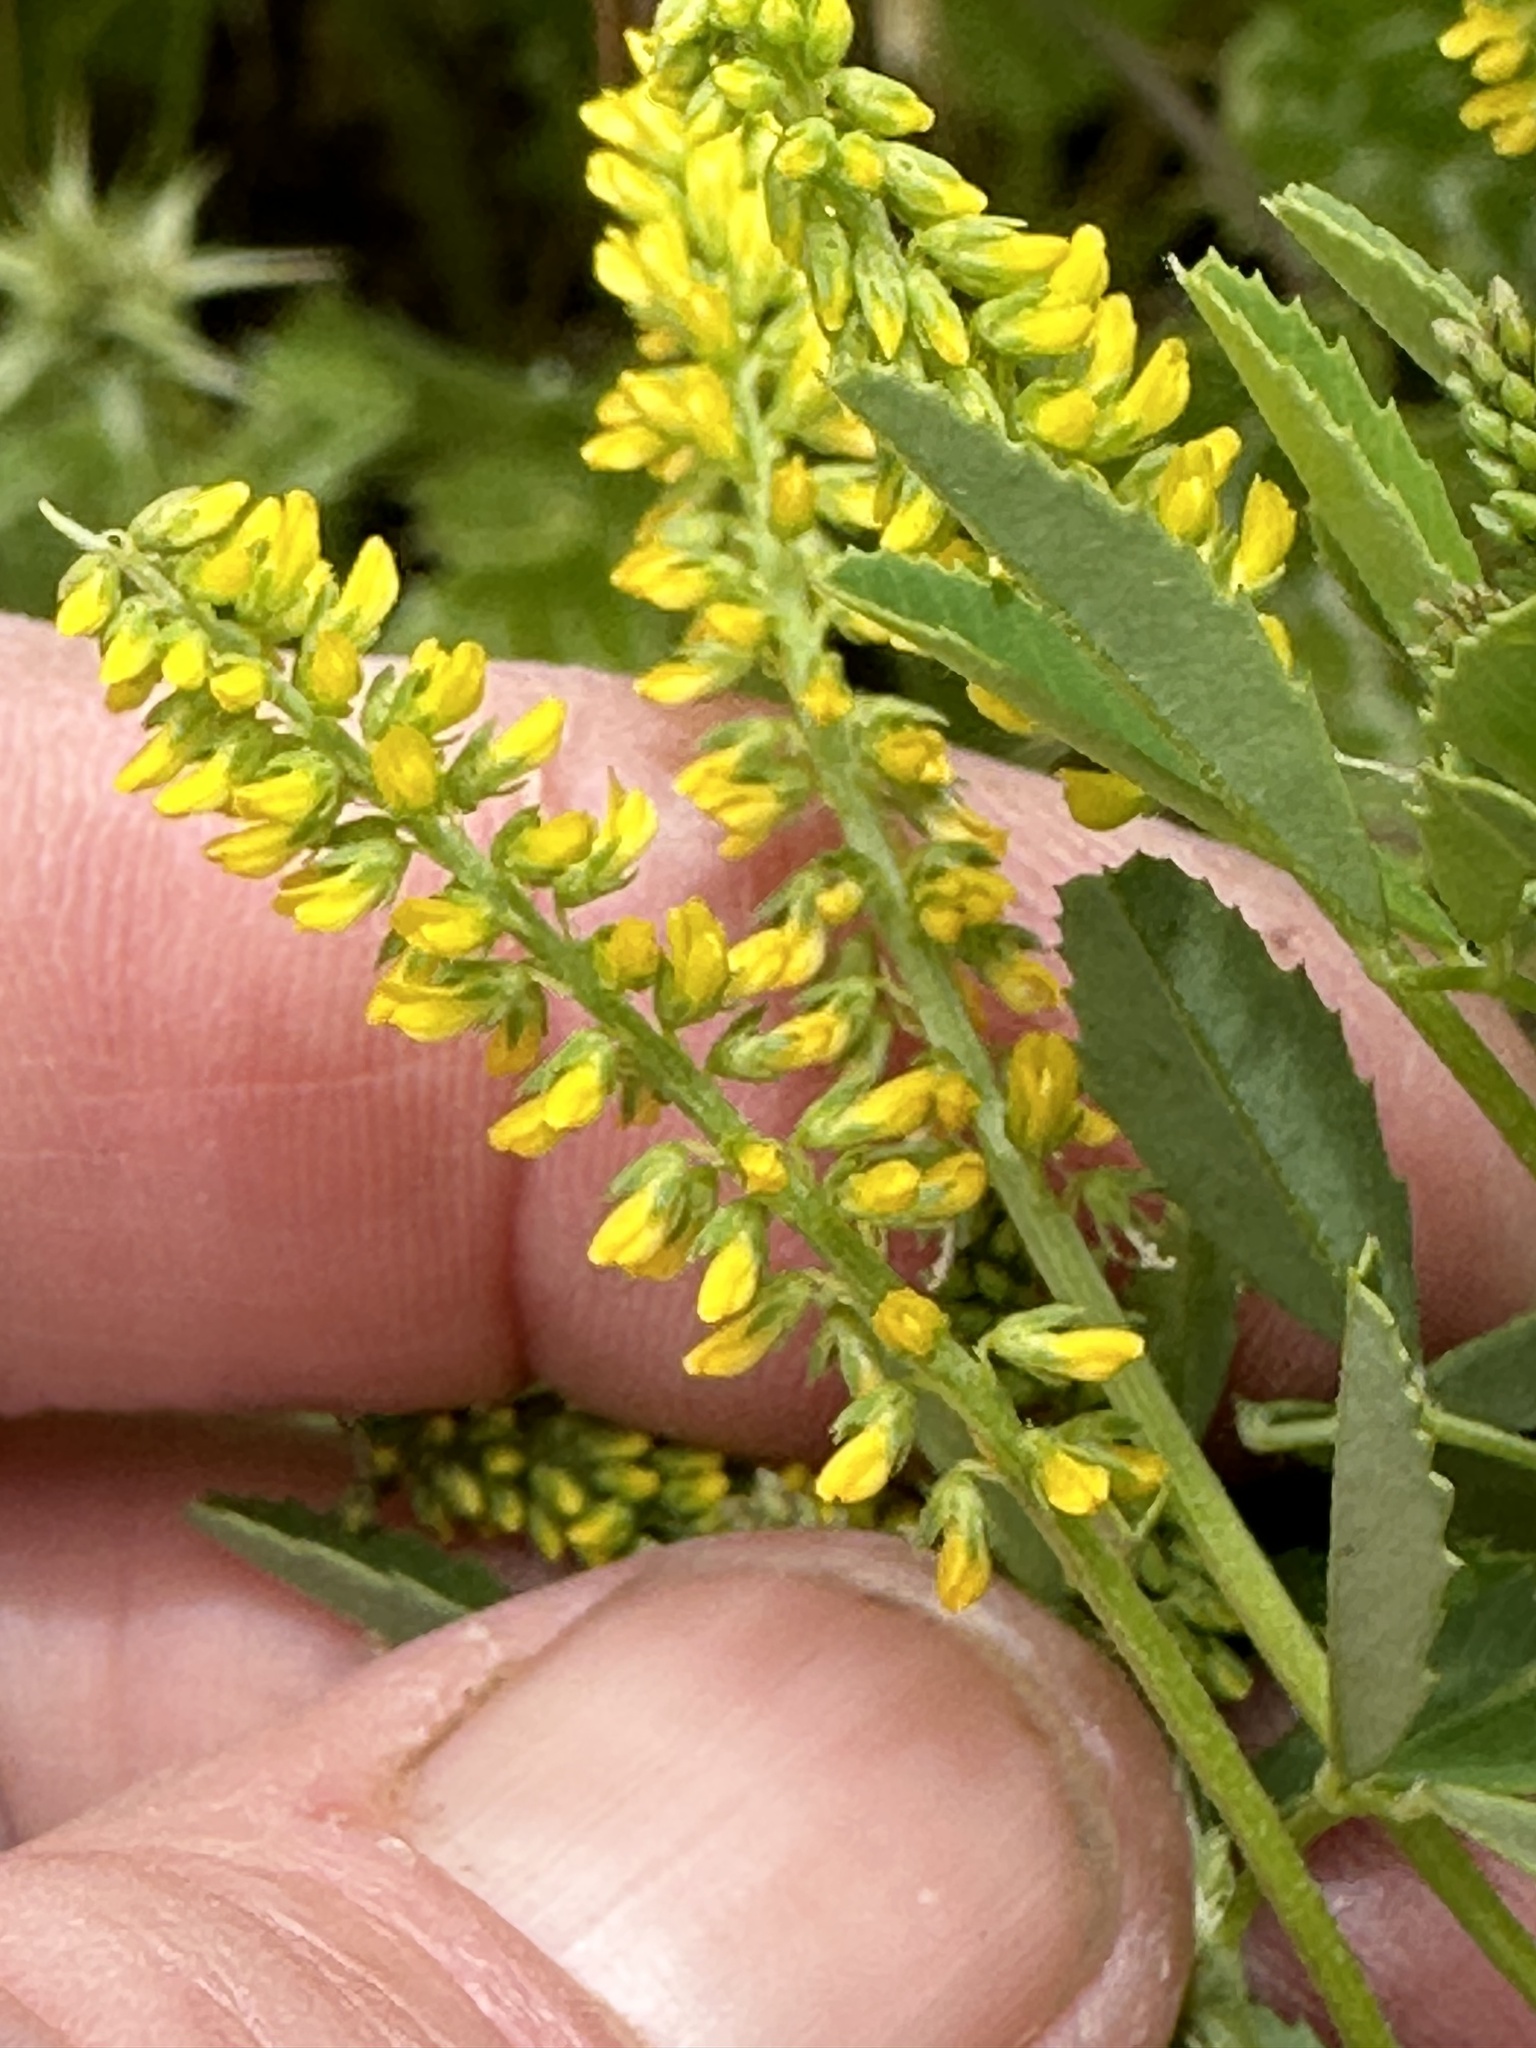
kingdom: Plantae
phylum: Tracheophyta
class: Magnoliopsida
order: Fabales
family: Fabaceae
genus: Melilotus
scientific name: Melilotus indicus
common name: Small melilot
